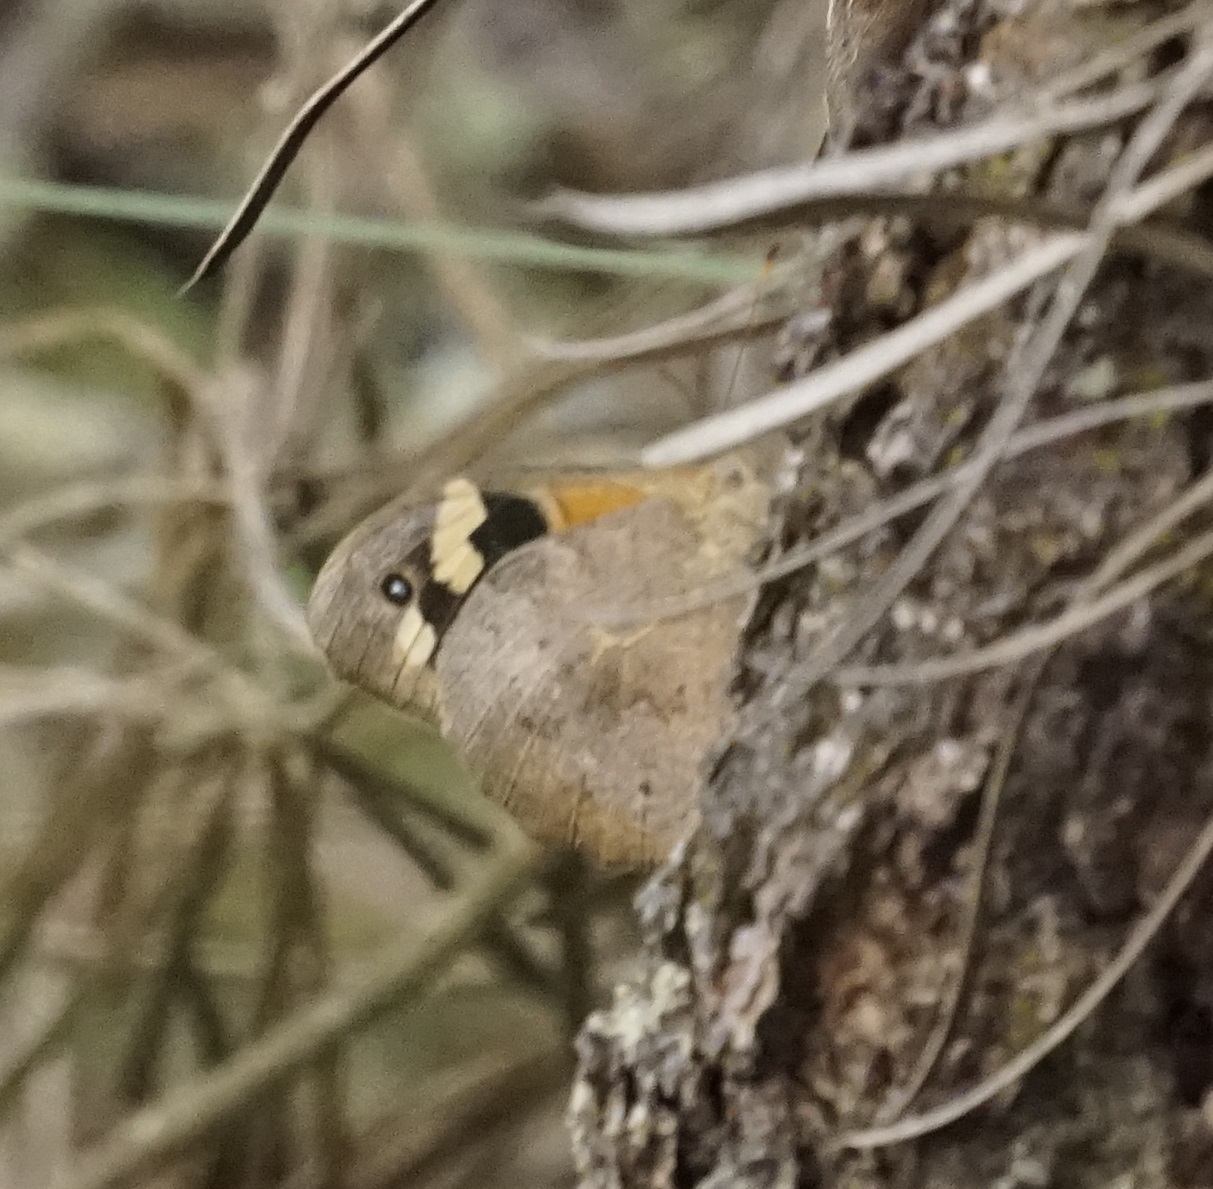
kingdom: Animalia
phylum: Arthropoda
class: Insecta
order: Lepidoptera
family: Nymphalidae
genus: Heteronympha
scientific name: Heteronympha merope
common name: Common brown
